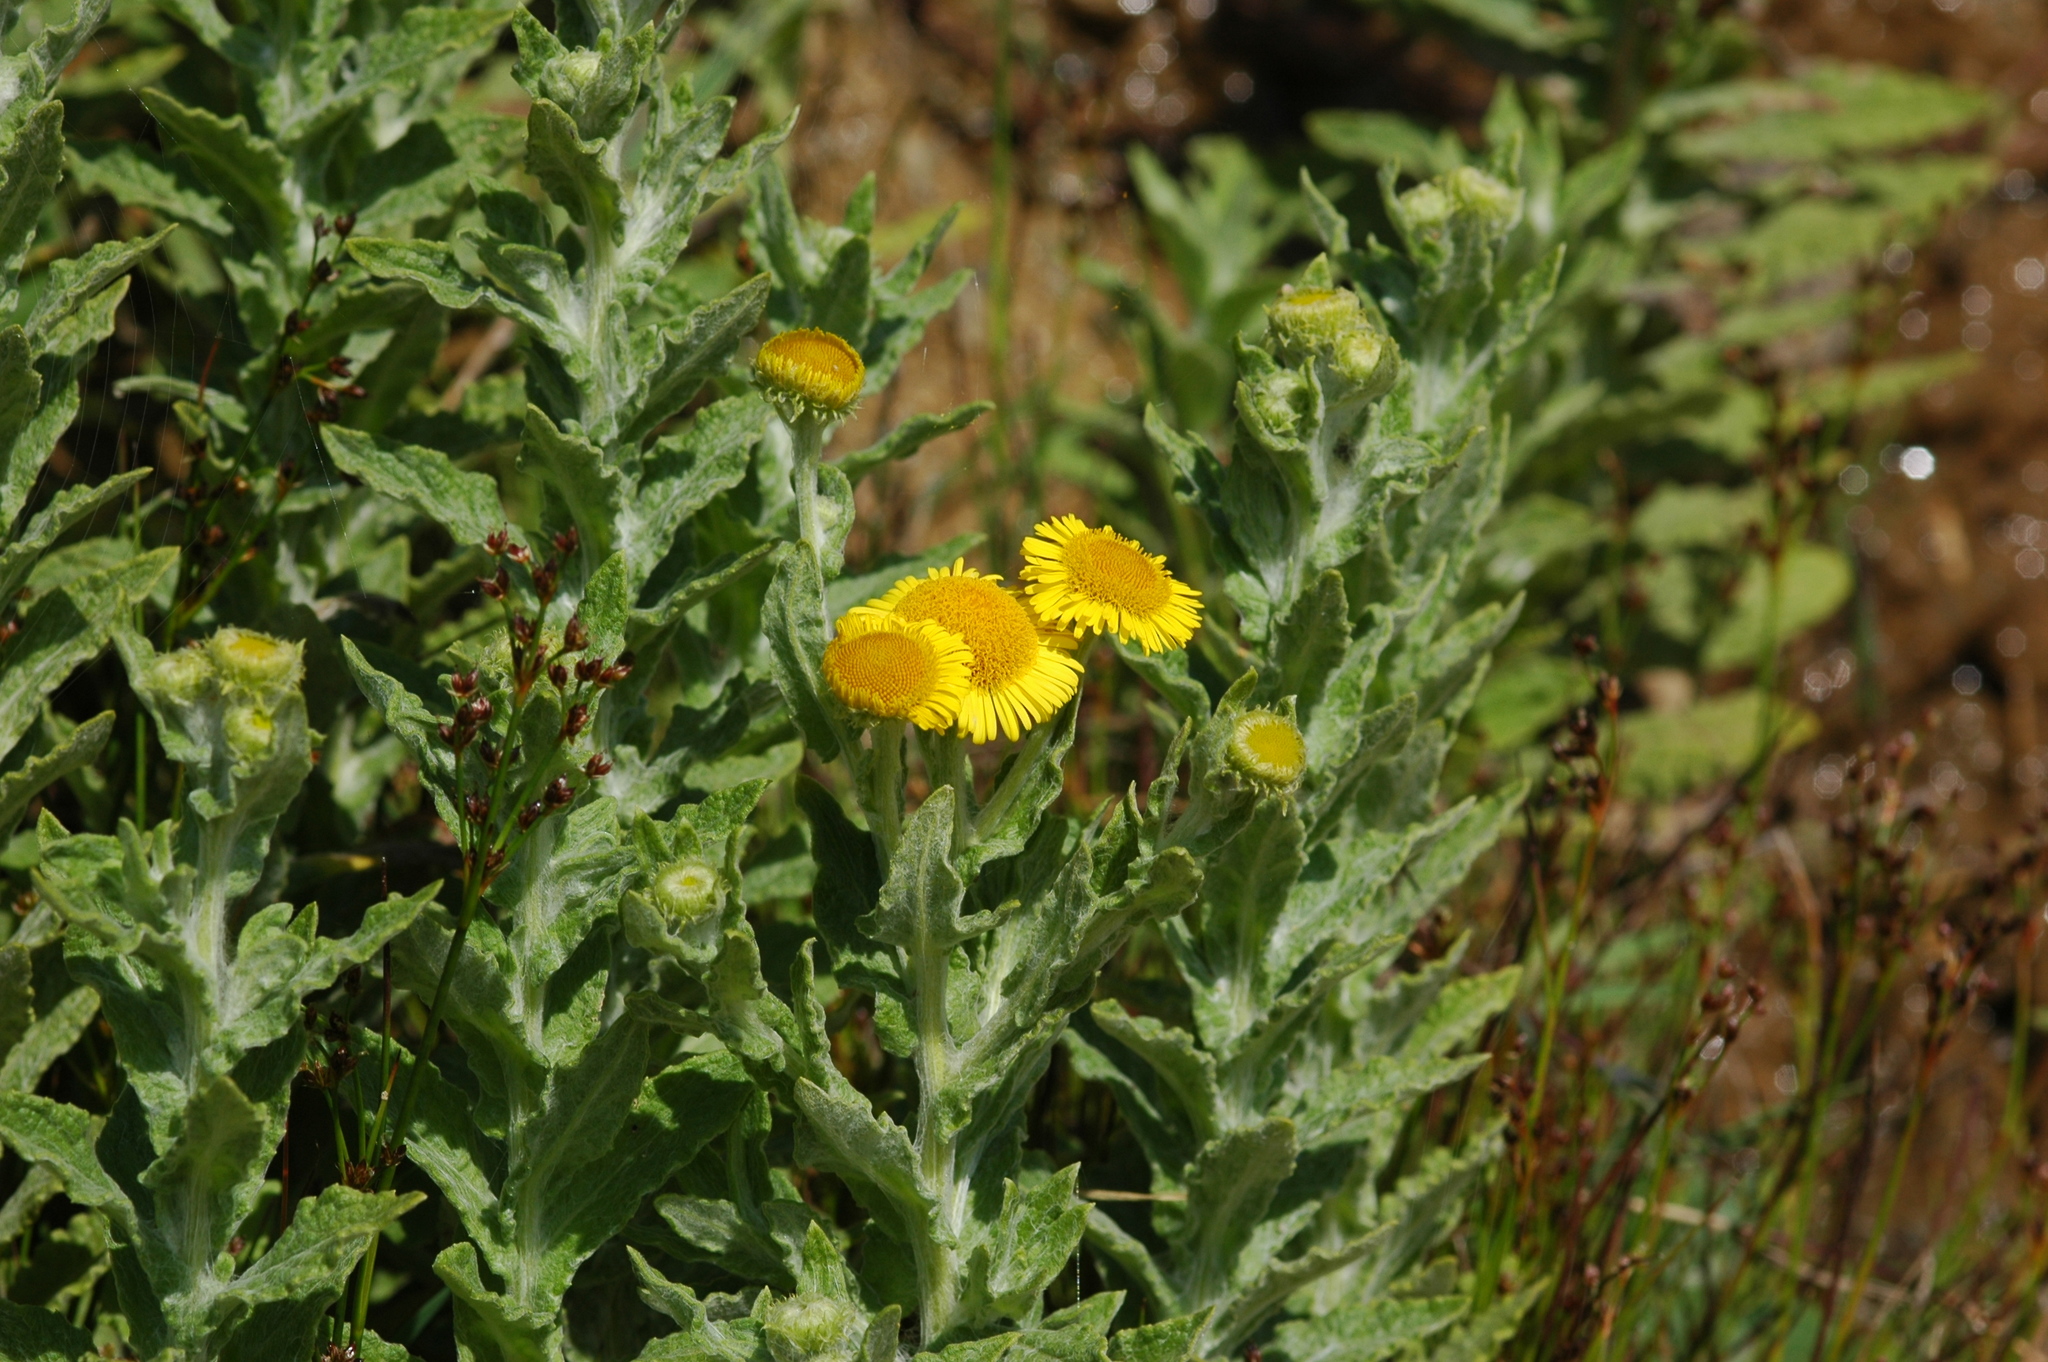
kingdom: Plantae
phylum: Tracheophyta
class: Magnoliopsida
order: Asterales
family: Asteraceae
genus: Pulicaria
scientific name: Pulicaria dysenterica
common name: Common fleabane
